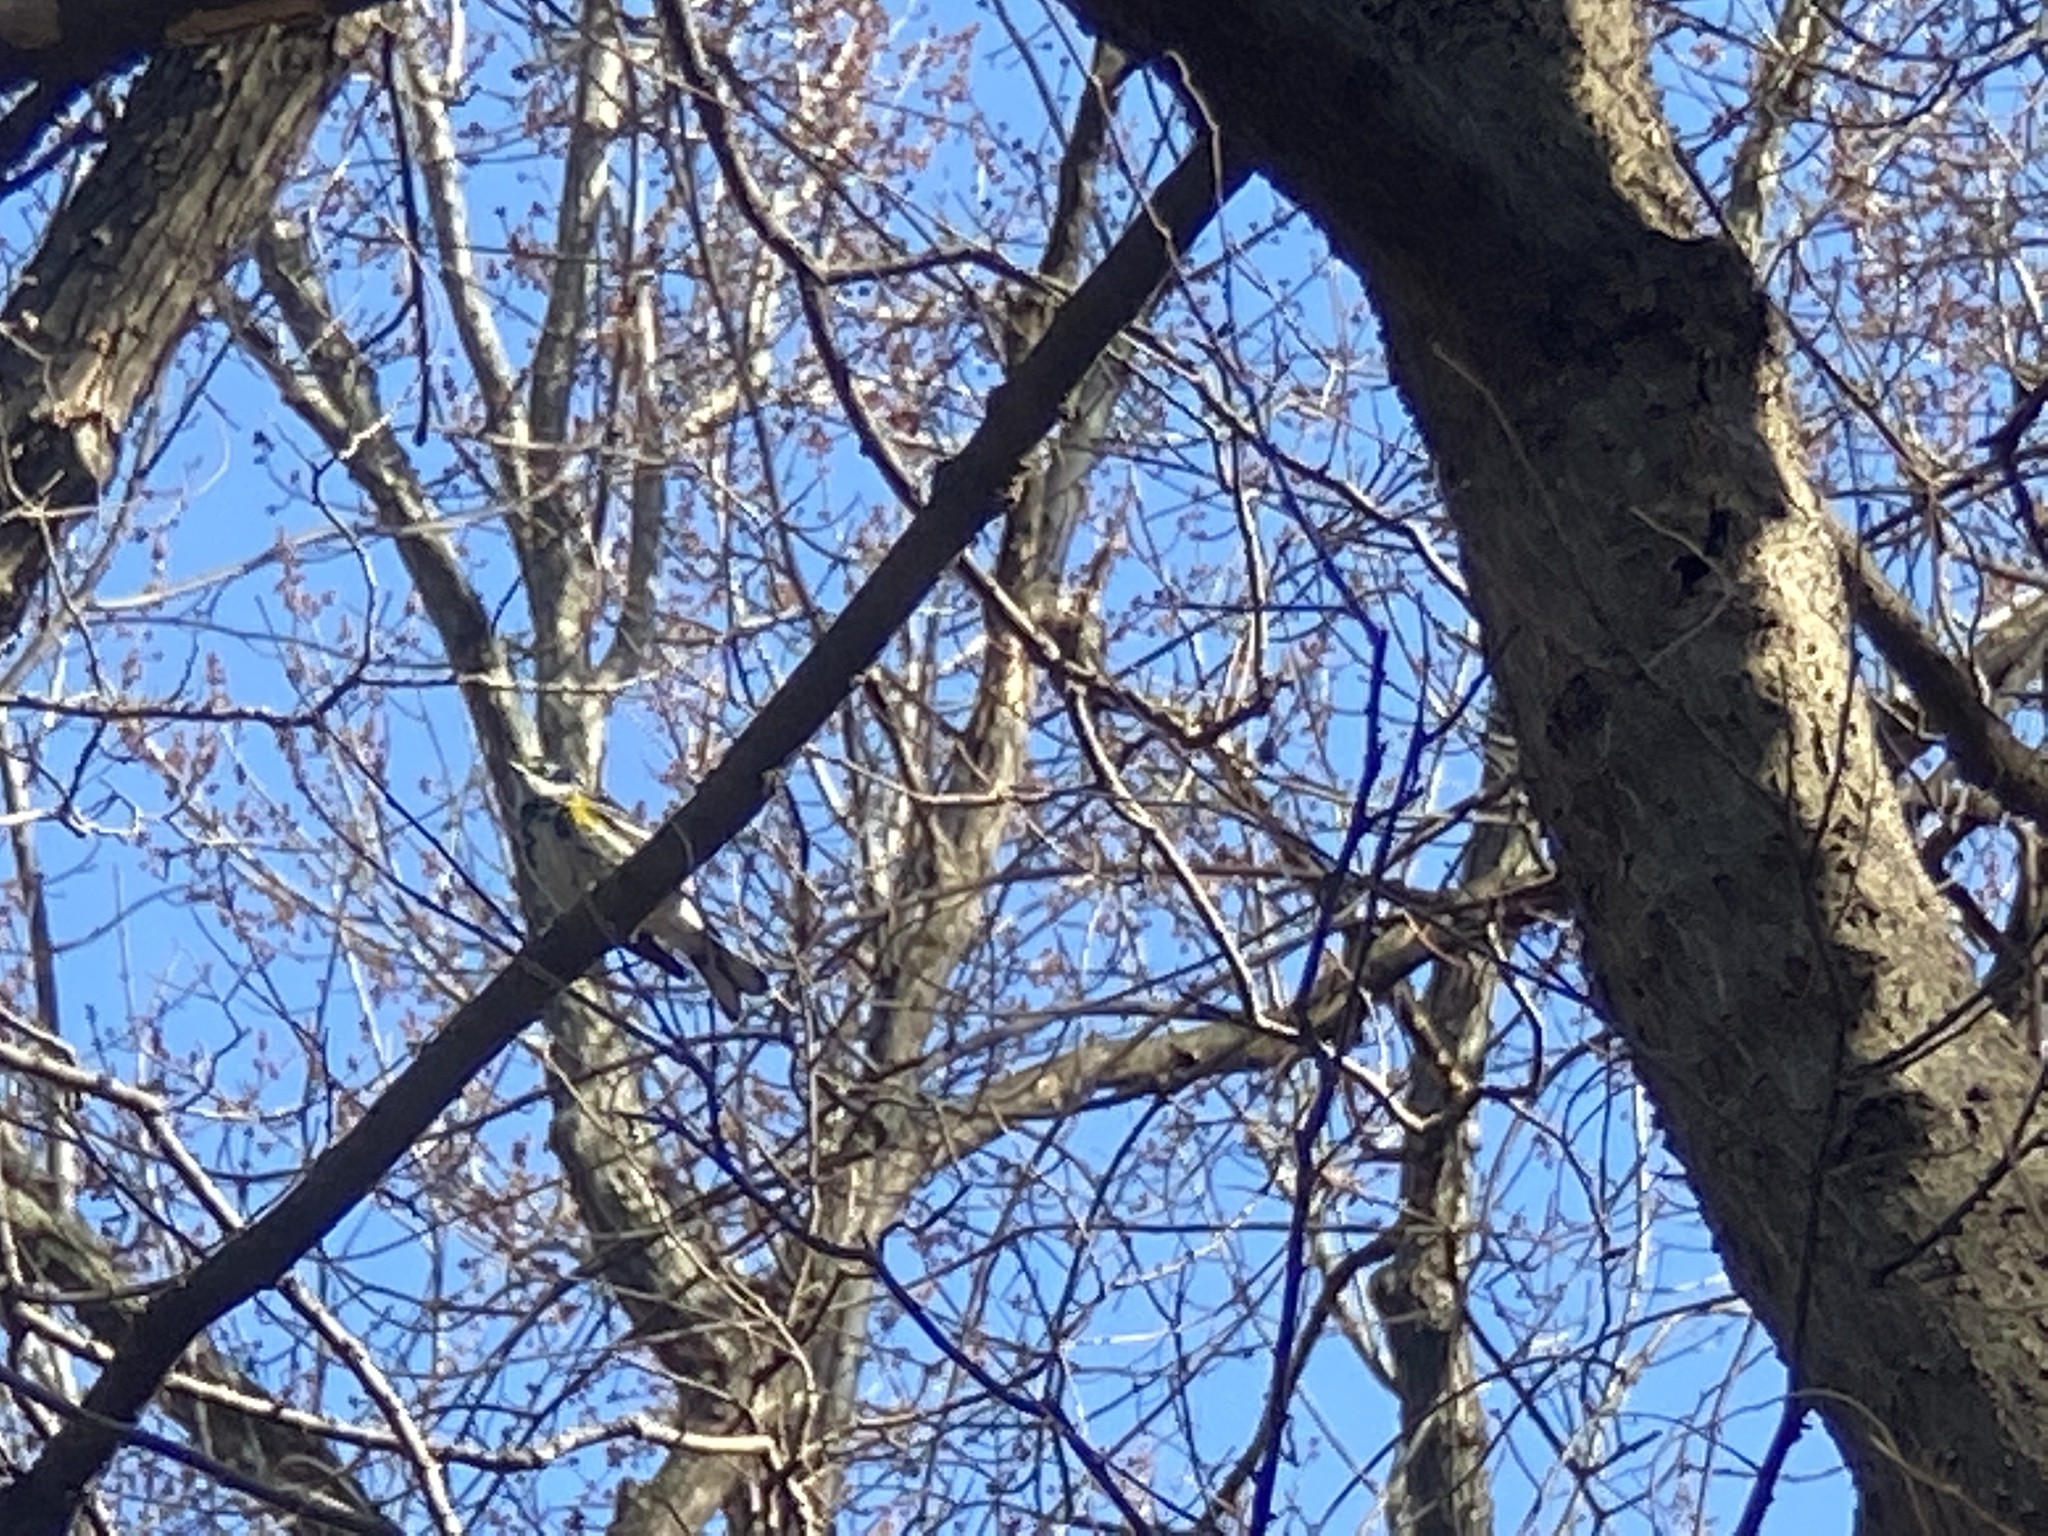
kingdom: Animalia
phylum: Chordata
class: Aves
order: Passeriformes
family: Parulidae
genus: Setophaga
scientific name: Setophaga coronata
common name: Myrtle warbler
